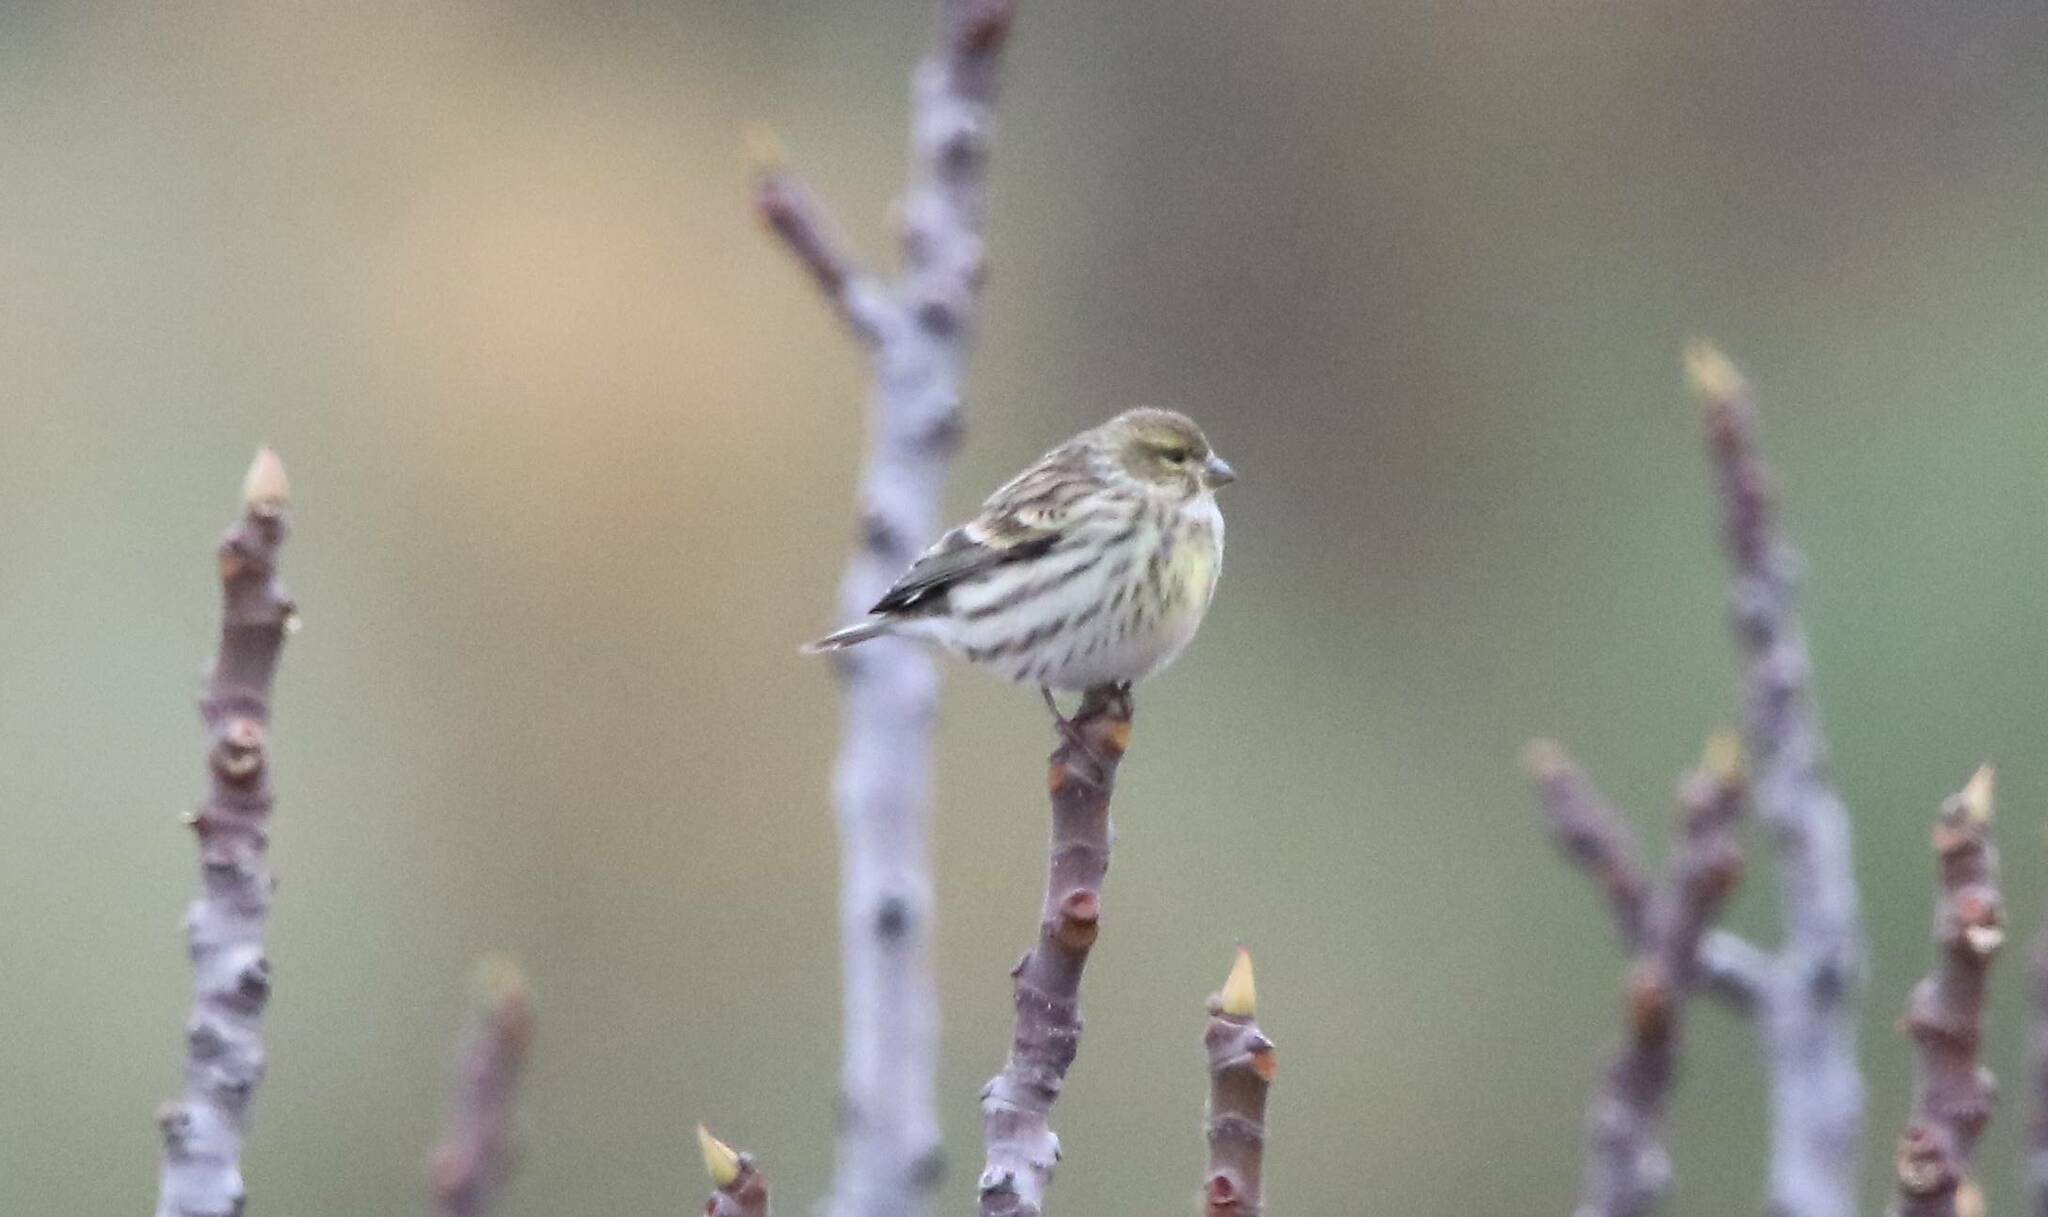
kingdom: Animalia
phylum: Chordata
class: Aves
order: Passeriformes
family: Fringillidae
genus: Serinus
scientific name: Serinus serinus
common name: European serin
